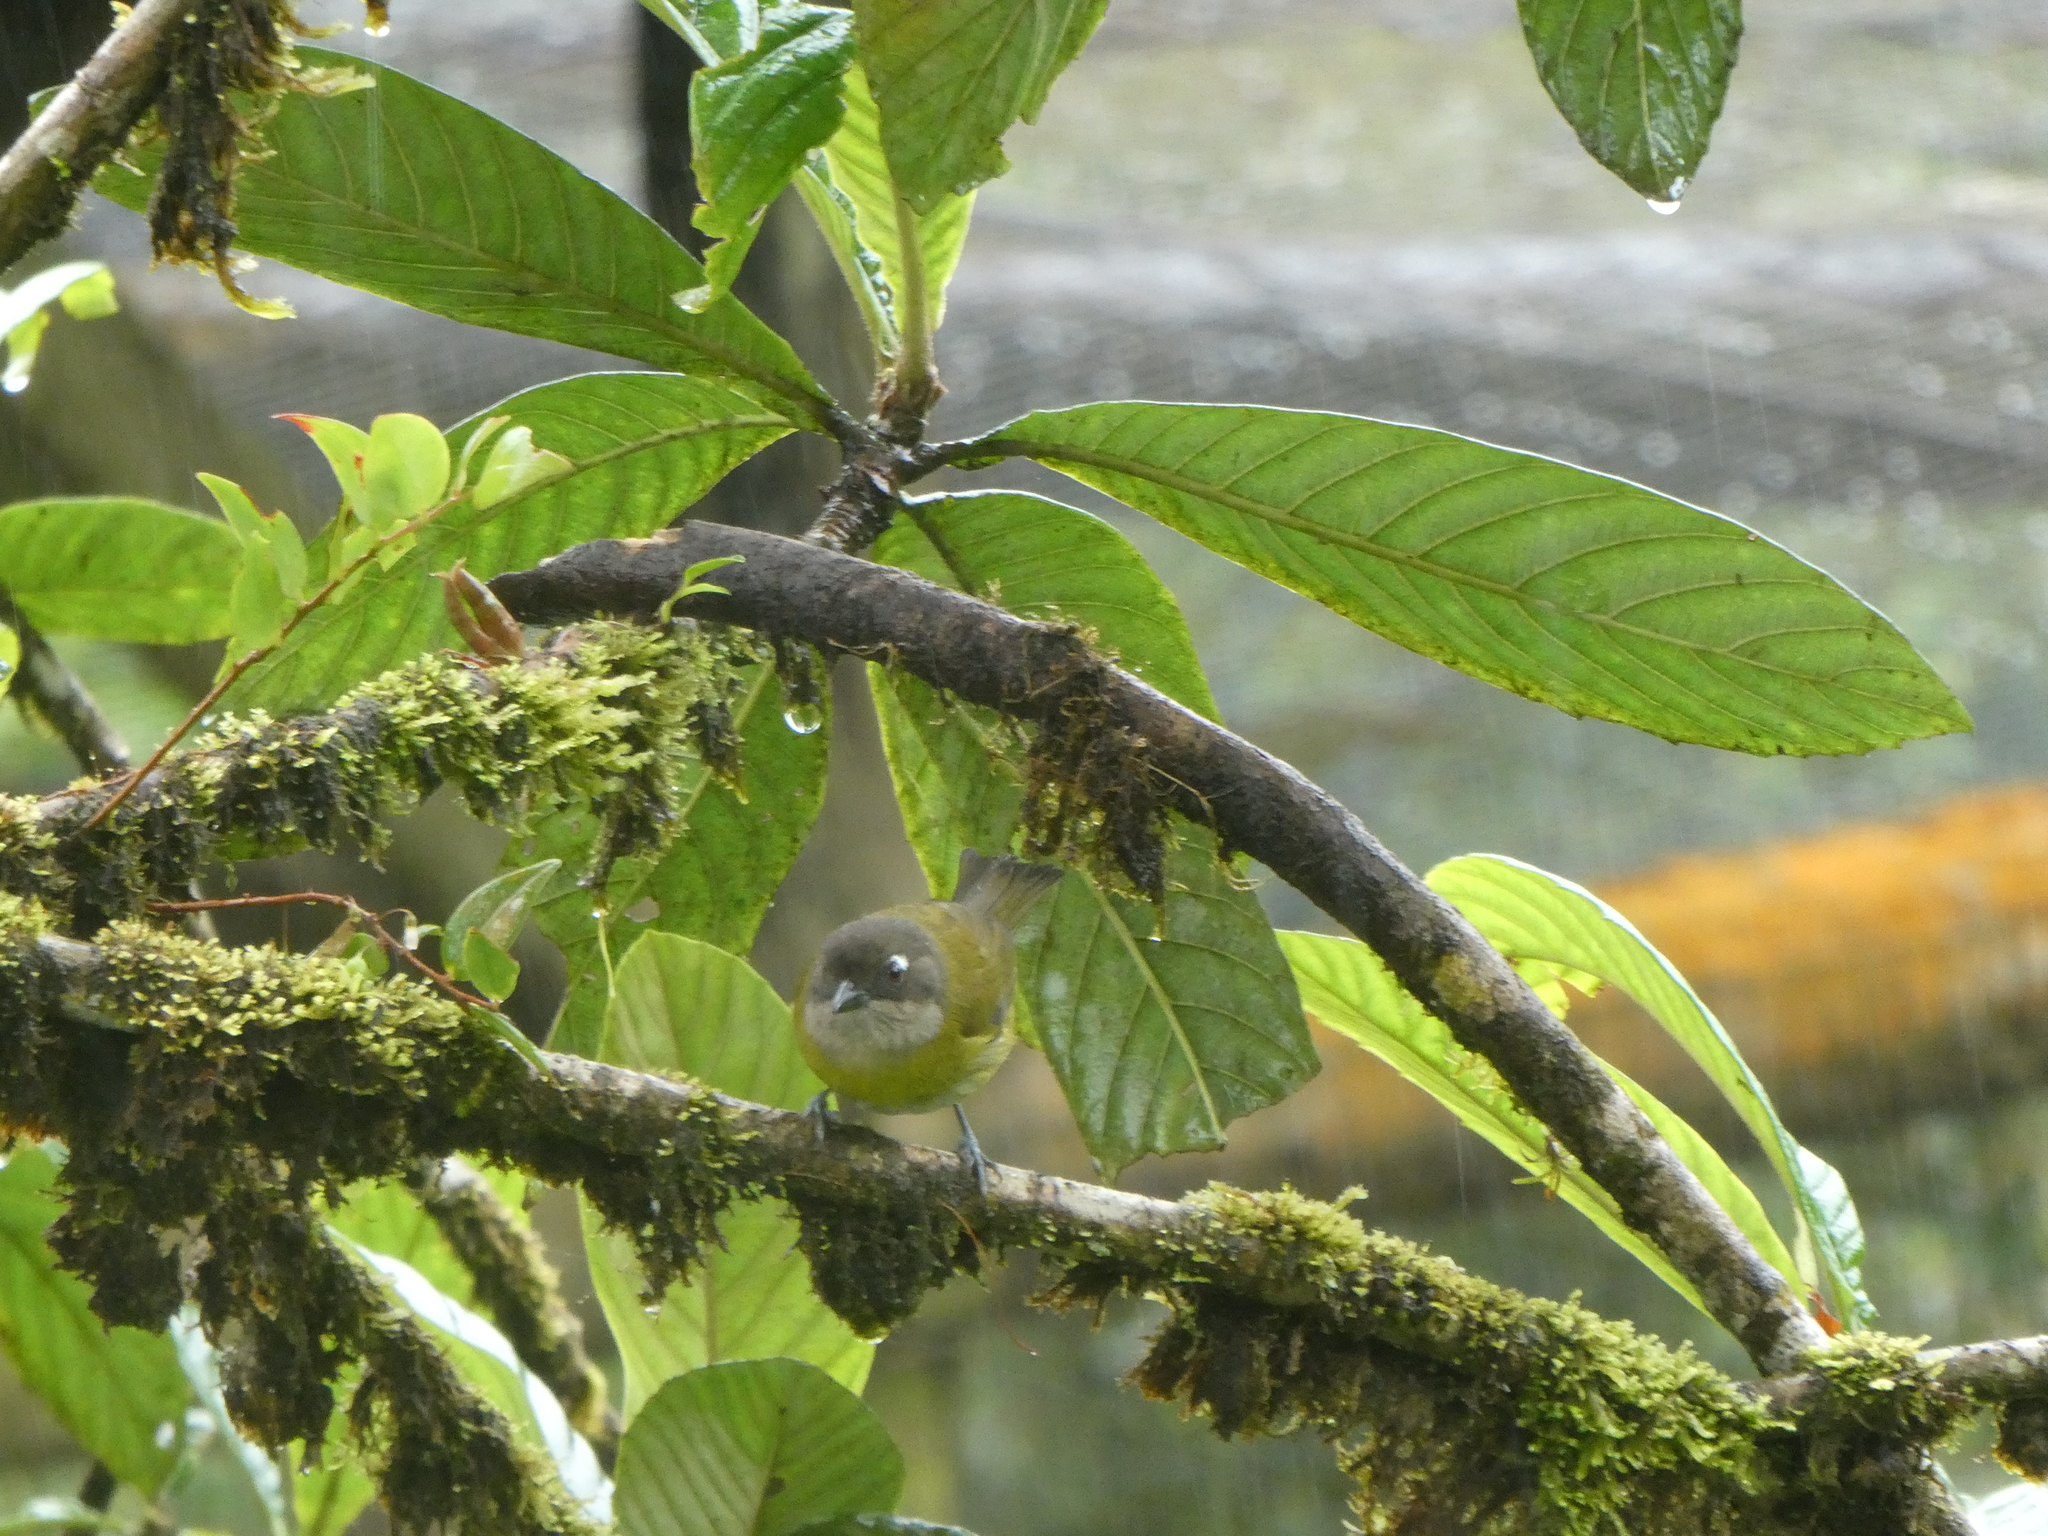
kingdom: Animalia
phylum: Chordata
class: Aves
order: Passeriformes
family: Passerellidae
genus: Chlorospingus
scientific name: Chlorospingus flavopectus
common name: Common chlorospingus
